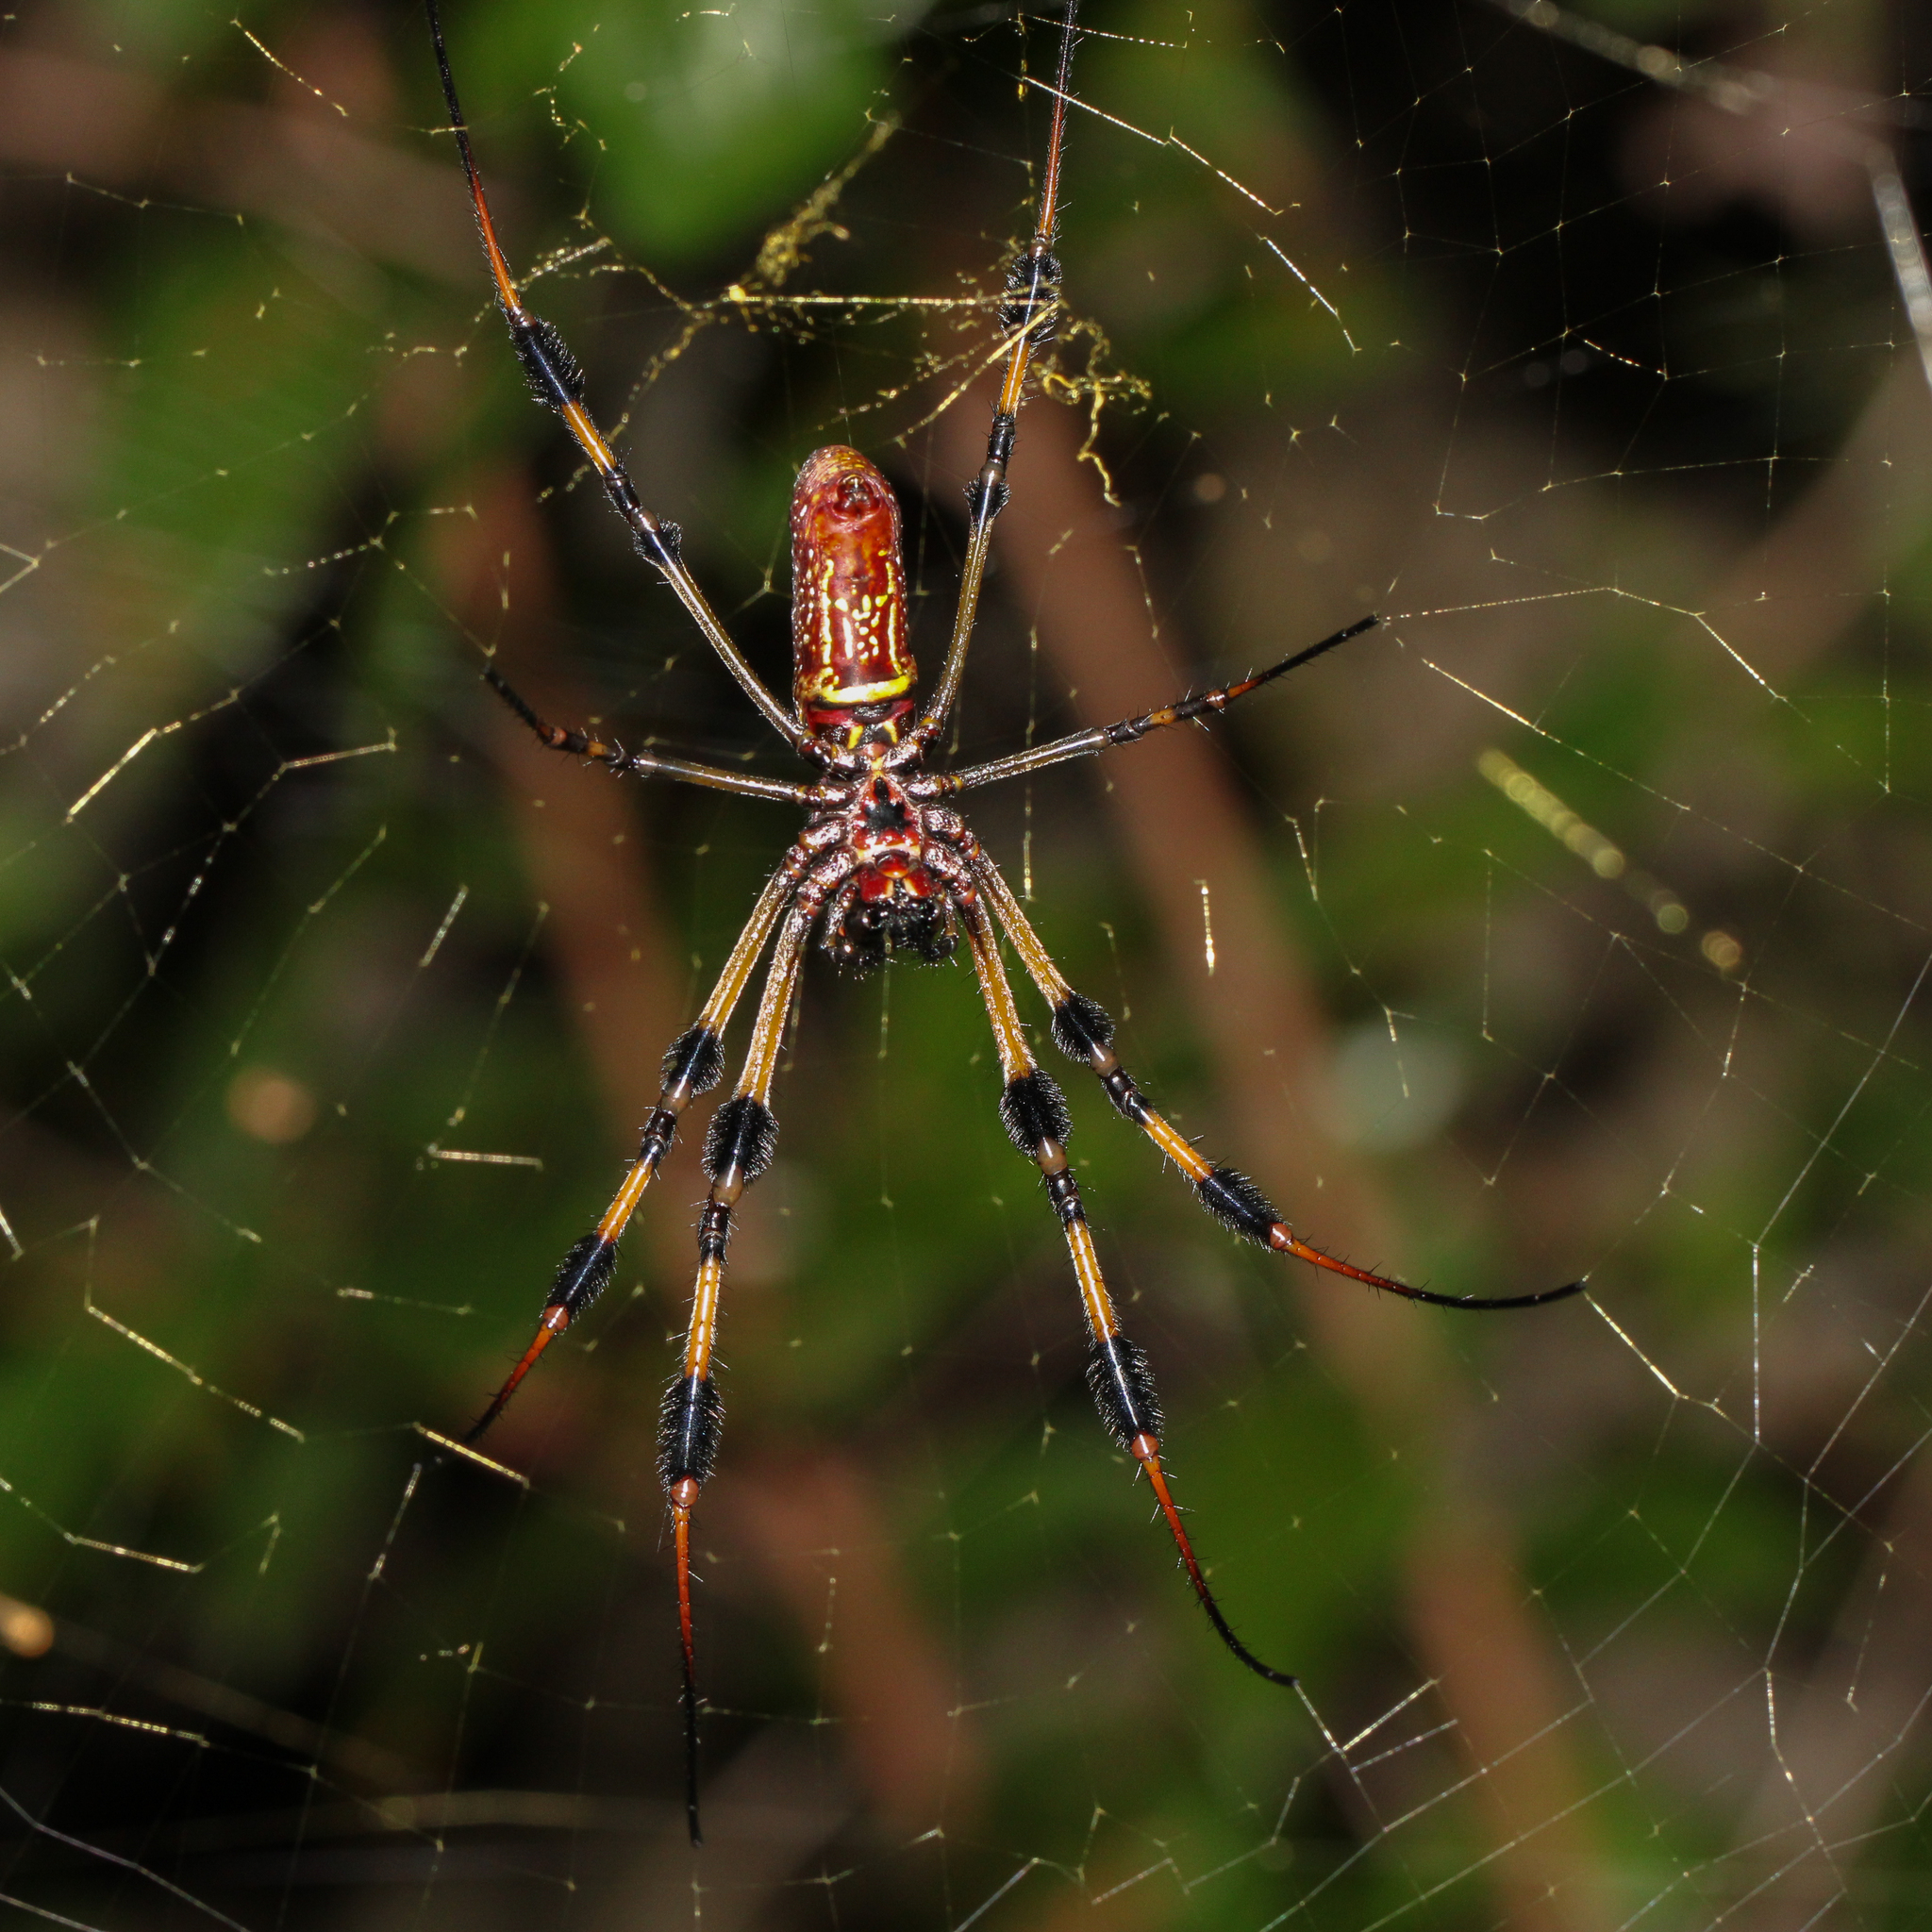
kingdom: Animalia
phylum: Arthropoda
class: Arachnida
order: Araneae
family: Araneidae
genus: Trichonephila
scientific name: Trichonephila clavipes
